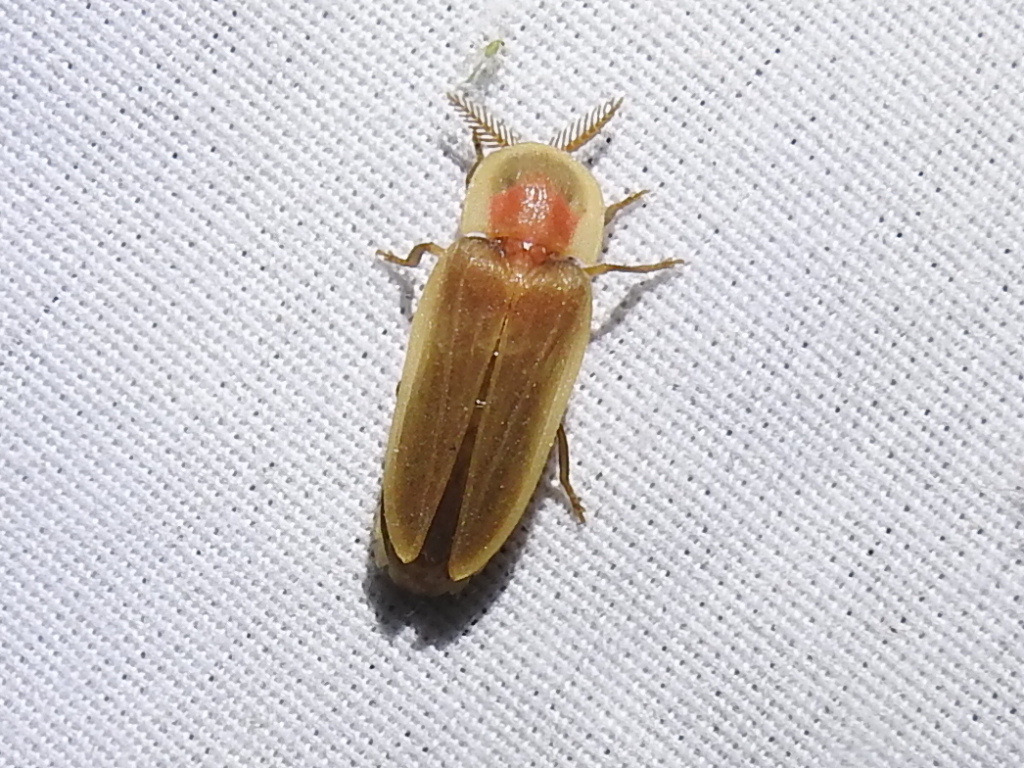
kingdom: Animalia
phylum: Arthropoda
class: Insecta
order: Coleoptera
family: Lampyridae
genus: Pleotomus
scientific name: Pleotomus pallens
